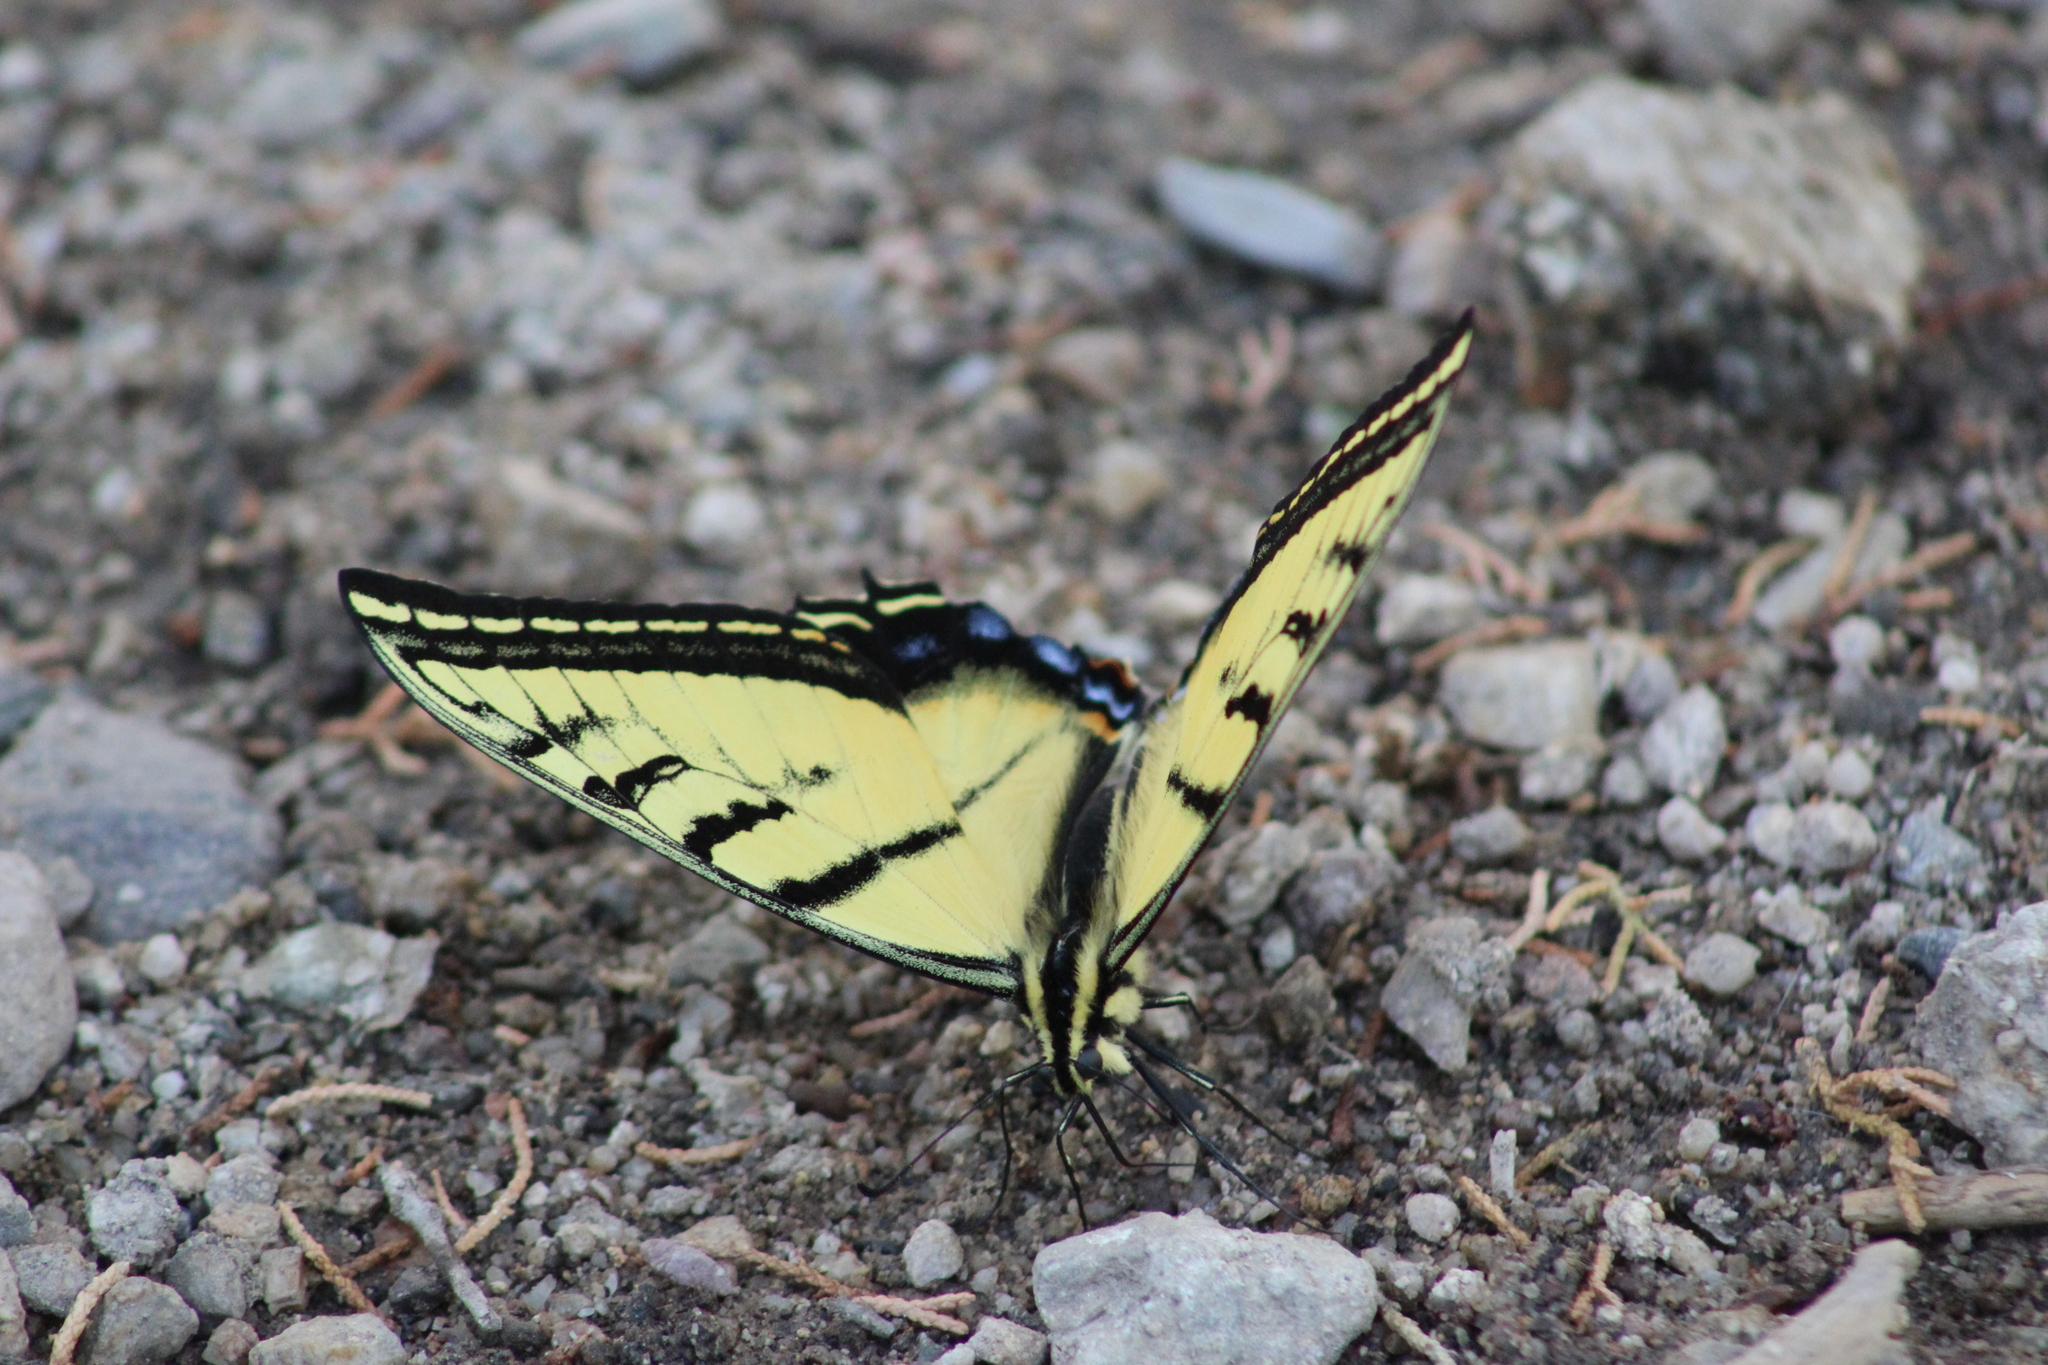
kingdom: Animalia
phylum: Arthropoda
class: Insecta
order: Lepidoptera
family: Papilionidae
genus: Papilio
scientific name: Papilio multicaudata
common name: Two-tailed tiger swallowtail
